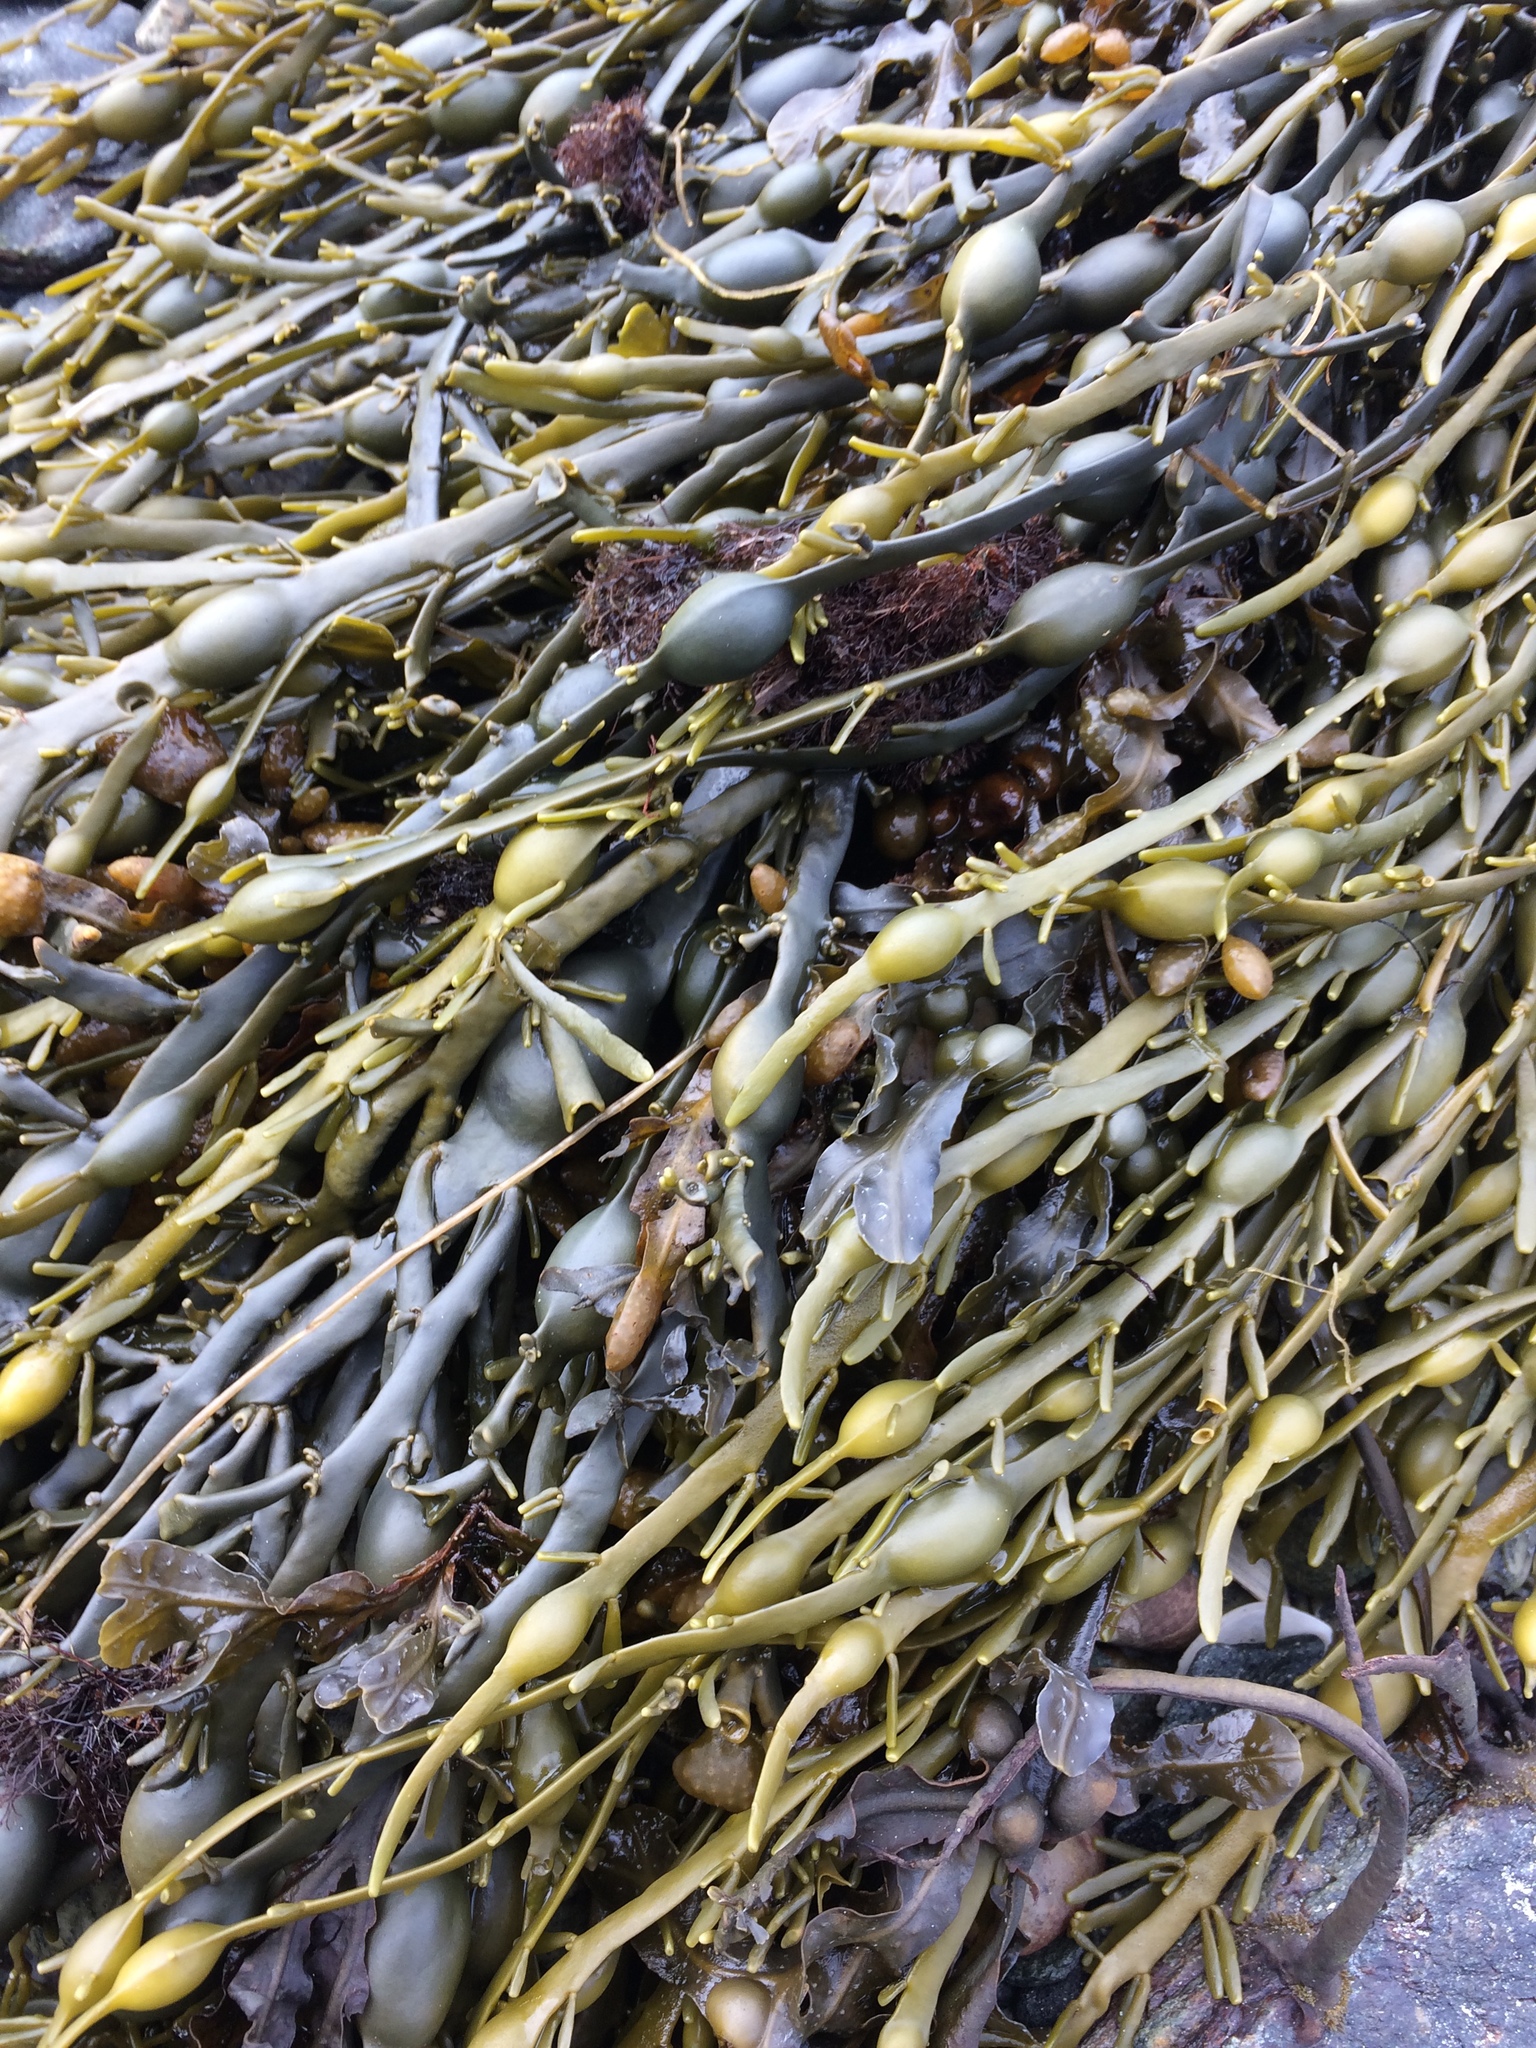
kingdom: Chromista
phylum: Ochrophyta
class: Phaeophyceae
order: Fucales
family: Fucaceae
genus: Ascophyllum
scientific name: Ascophyllum nodosum
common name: Knotted wrack
